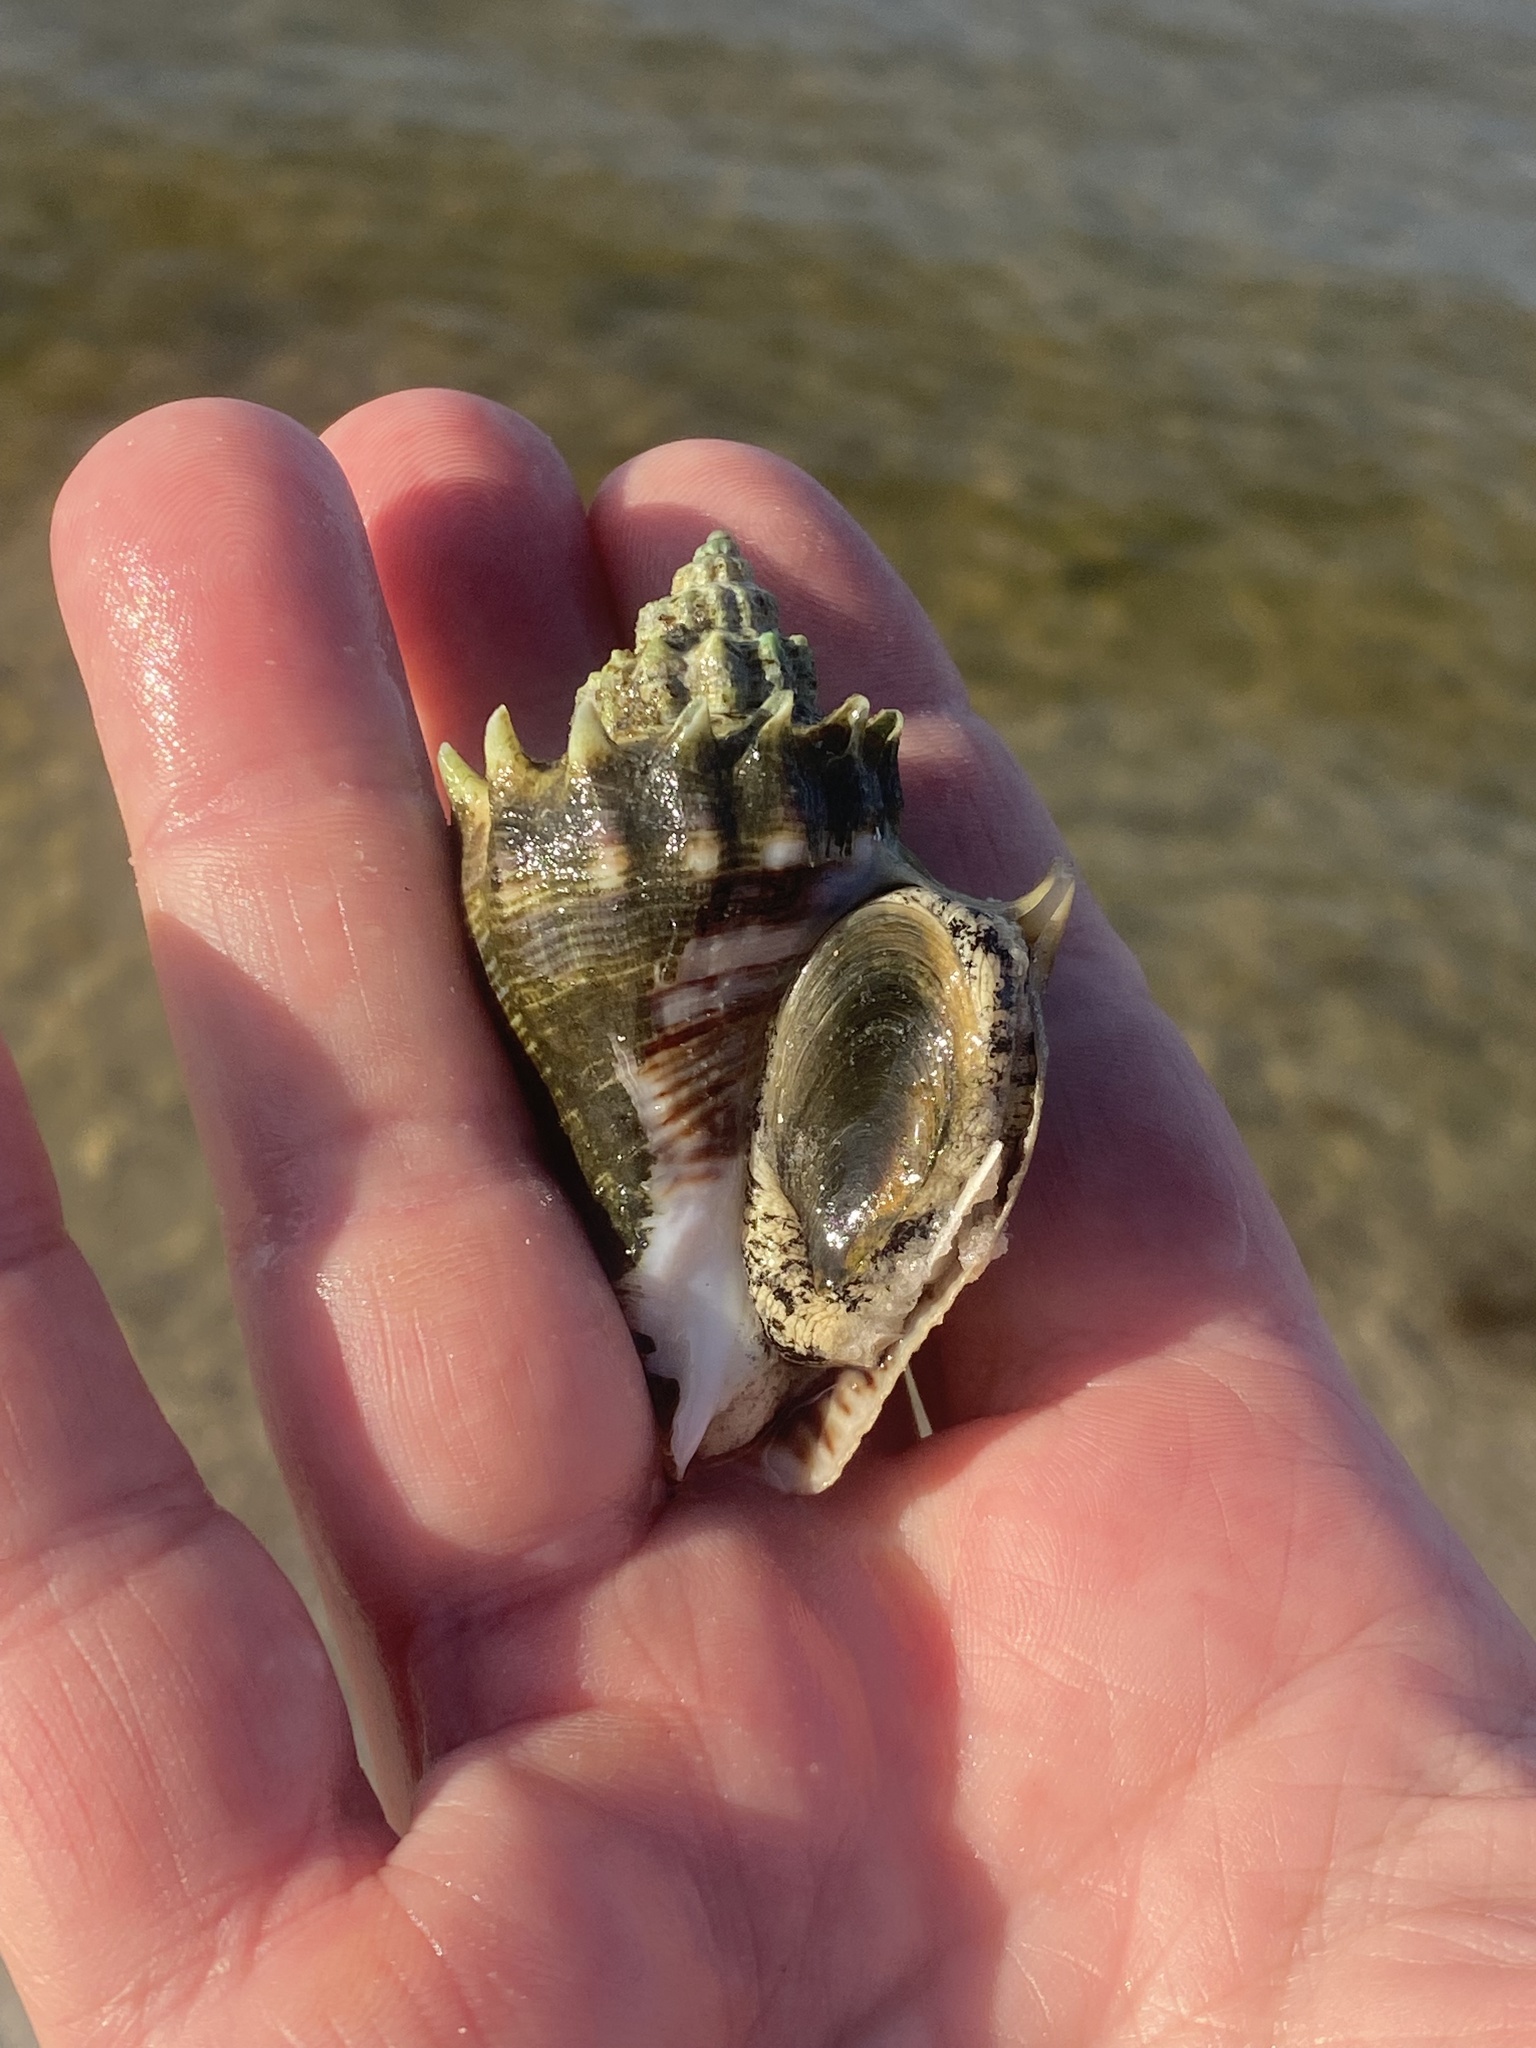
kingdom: Animalia
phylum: Mollusca
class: Gastropoda
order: Neogastropoda
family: Melongenidae
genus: Melongena
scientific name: Melongena corona
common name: American crown conch
